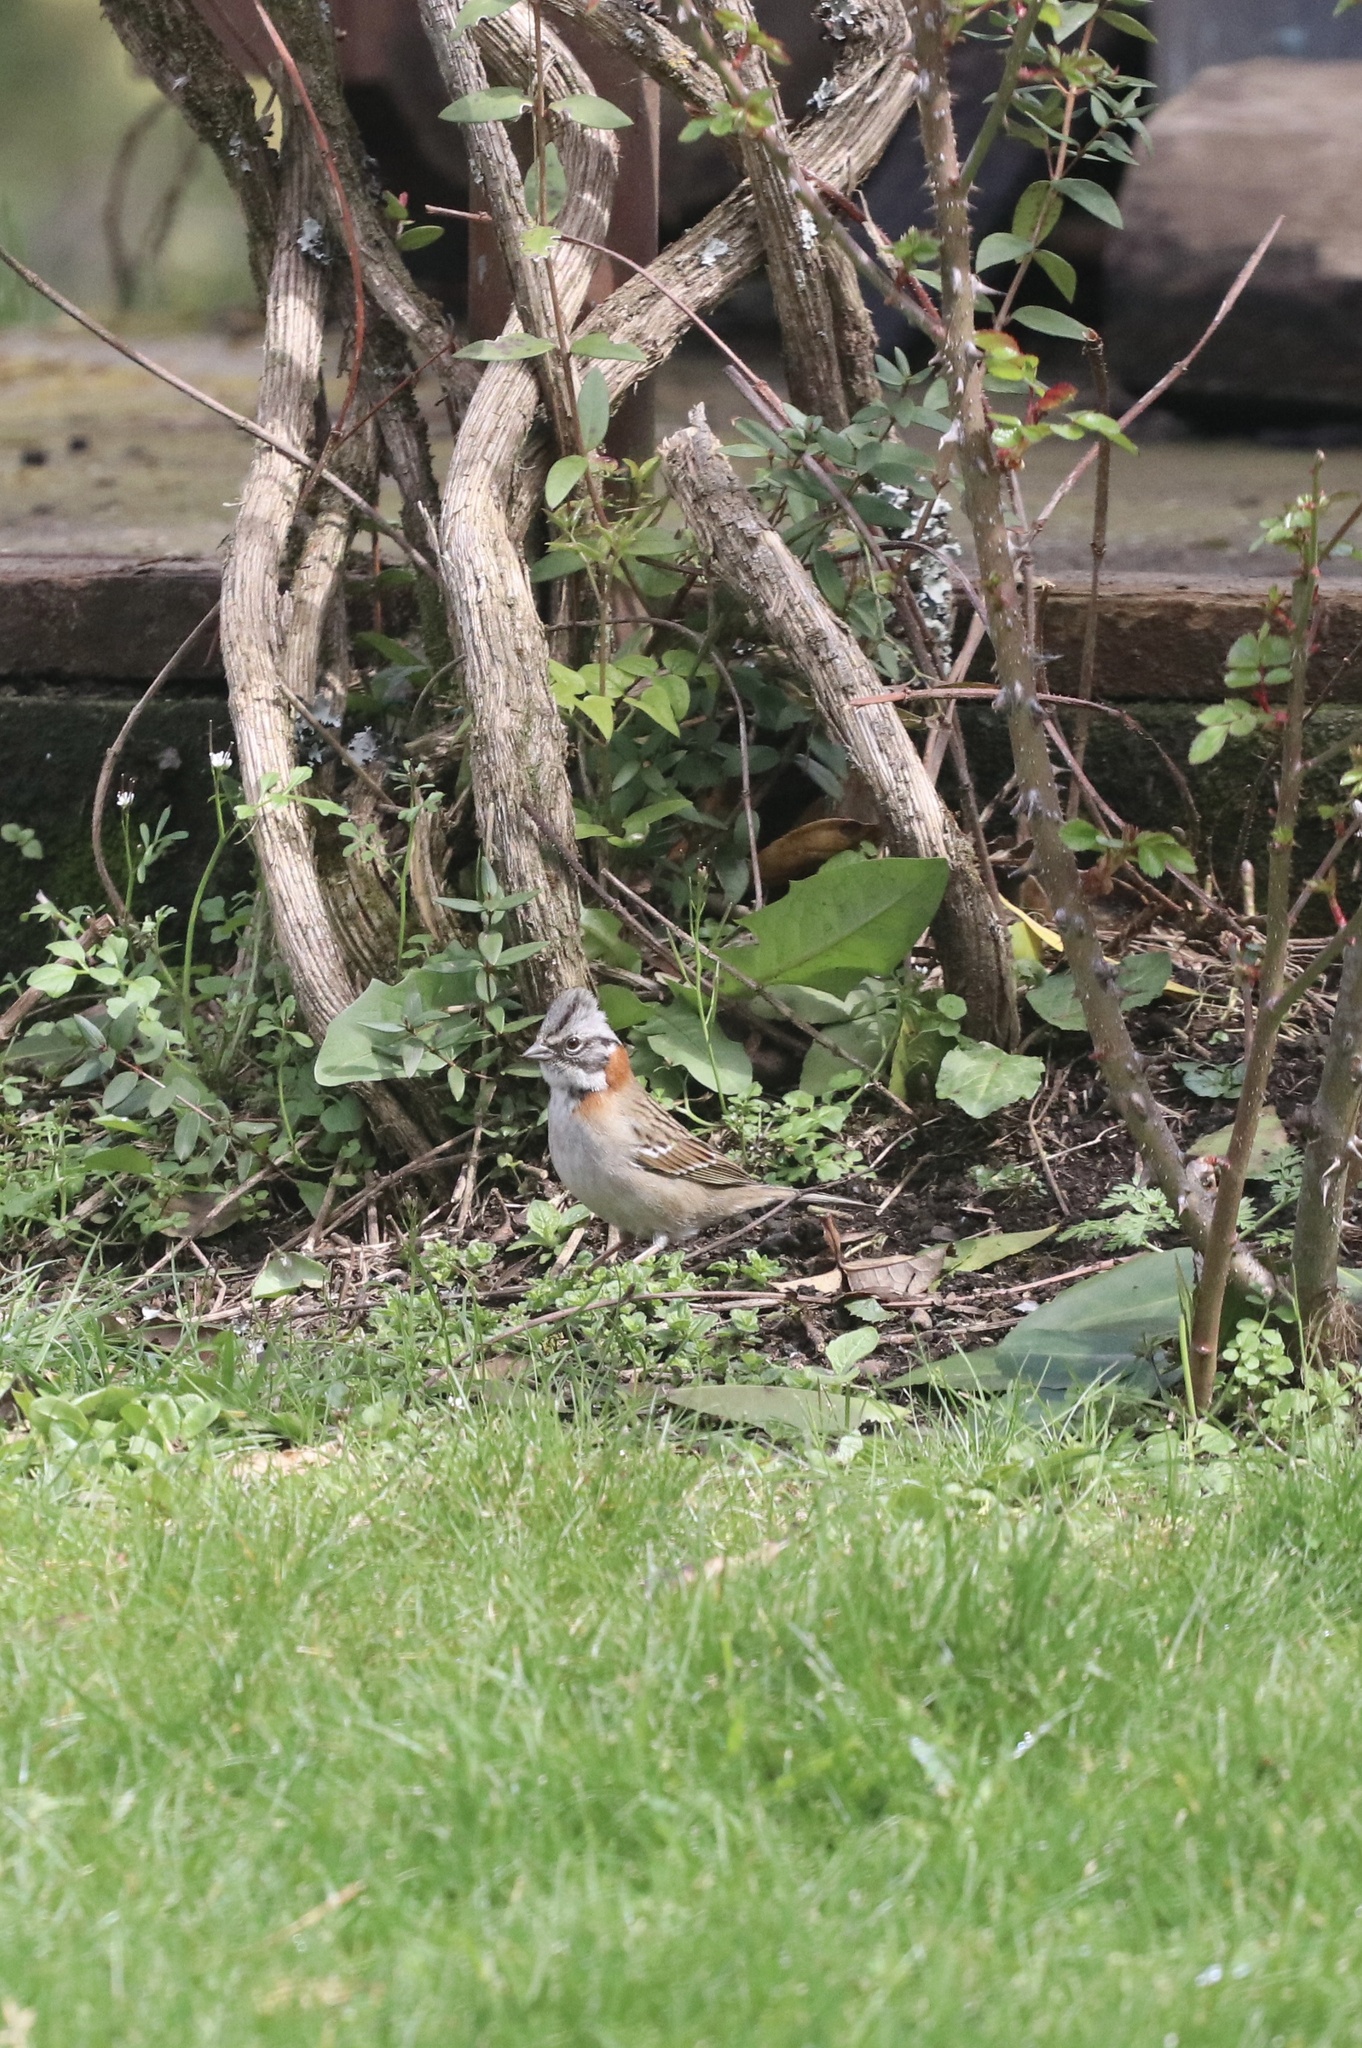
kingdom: Animalia
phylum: Chordata
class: Aves
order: Passeriformes
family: Passerellidae
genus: Zonotrichia
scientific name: Zonotrichia capensis
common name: Rufous-collared sparrow
